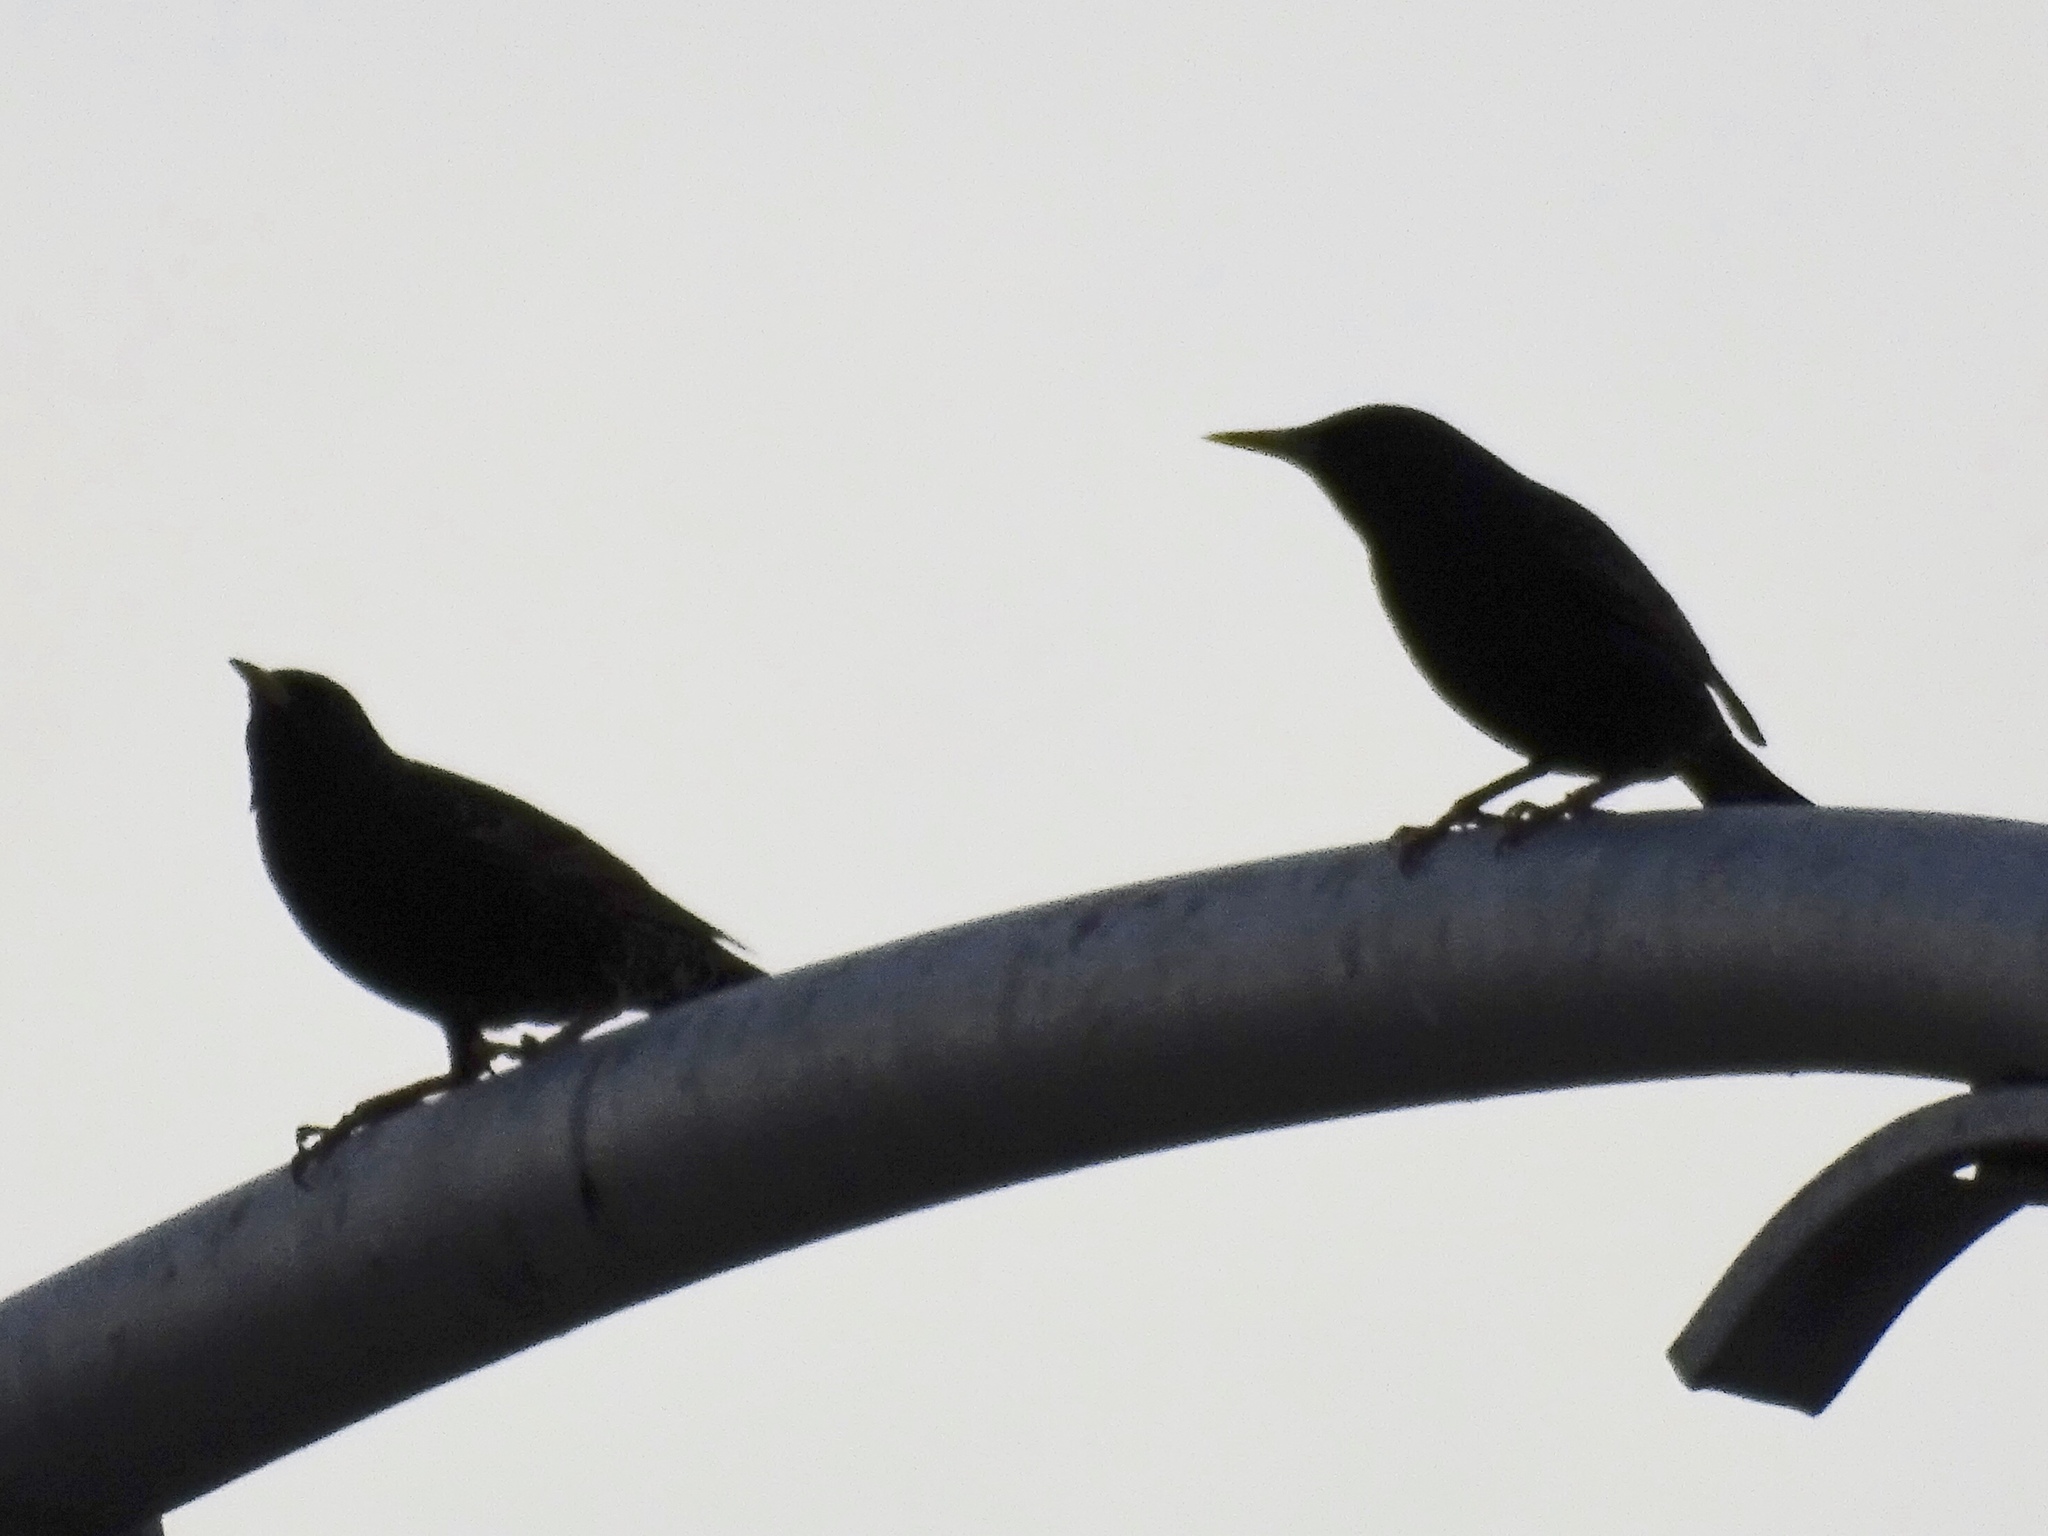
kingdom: Animalia
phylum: Chordata
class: Aves
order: Passeriformes
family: Sturnidae
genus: Sturnus
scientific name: Sturnus vulgaris
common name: Common starling
